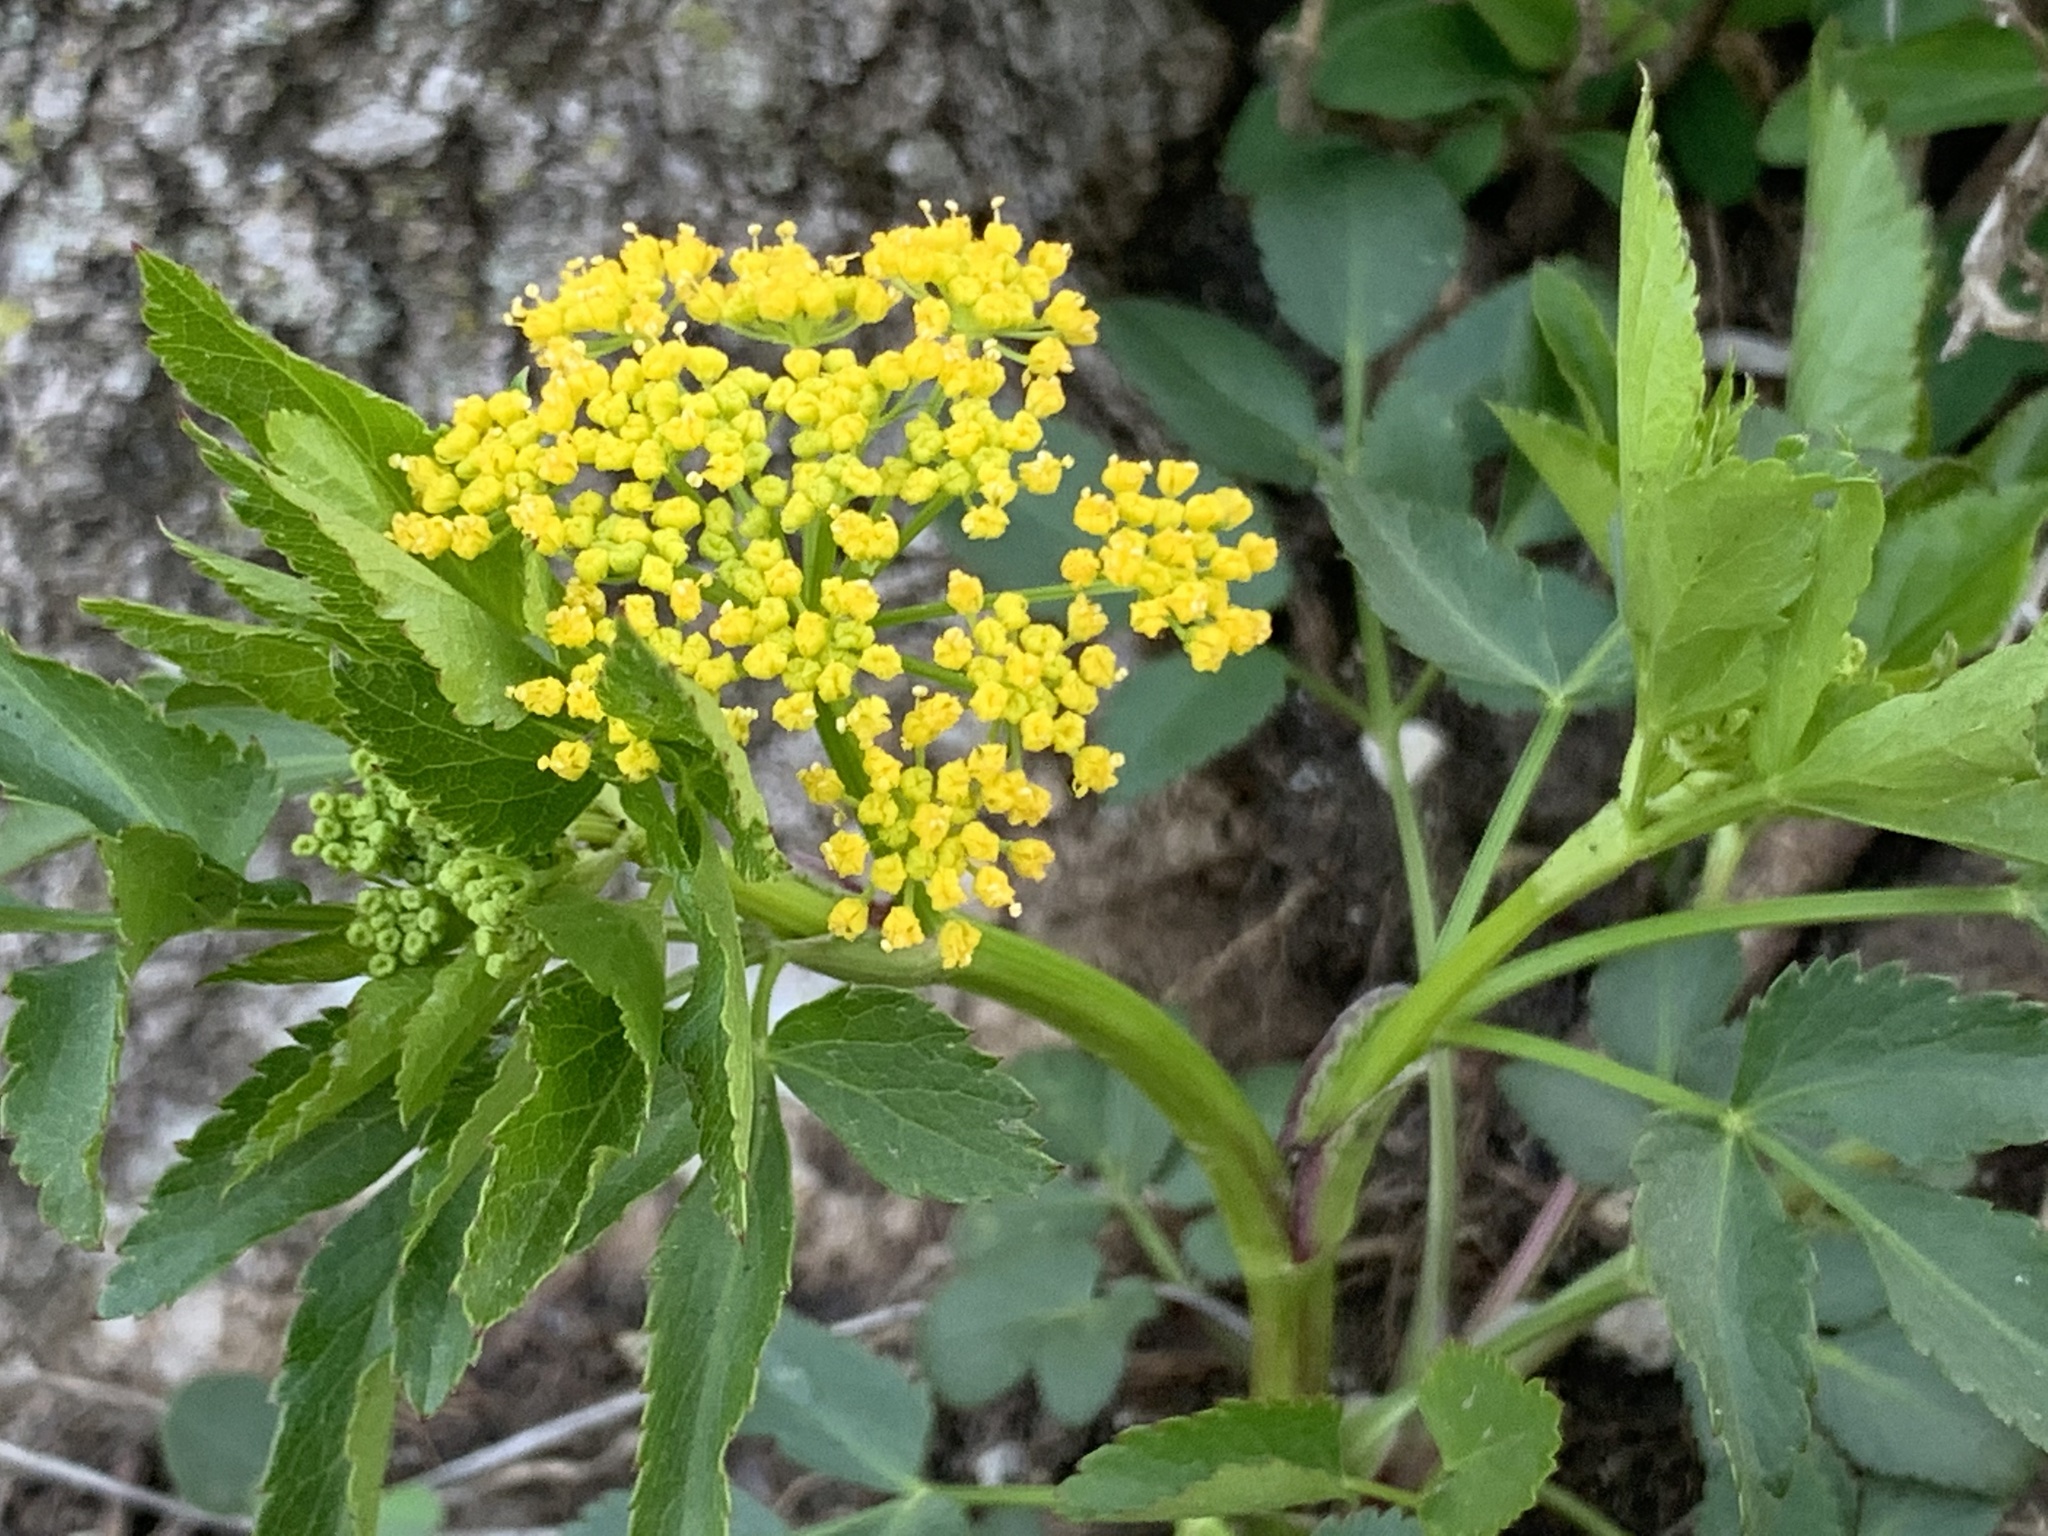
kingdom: Plantae
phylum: Tracheophyta
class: Magnoliopsida
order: Apiales
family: Apiaceae
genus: Zizia
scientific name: Zizia aurea
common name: Golden alexanders
